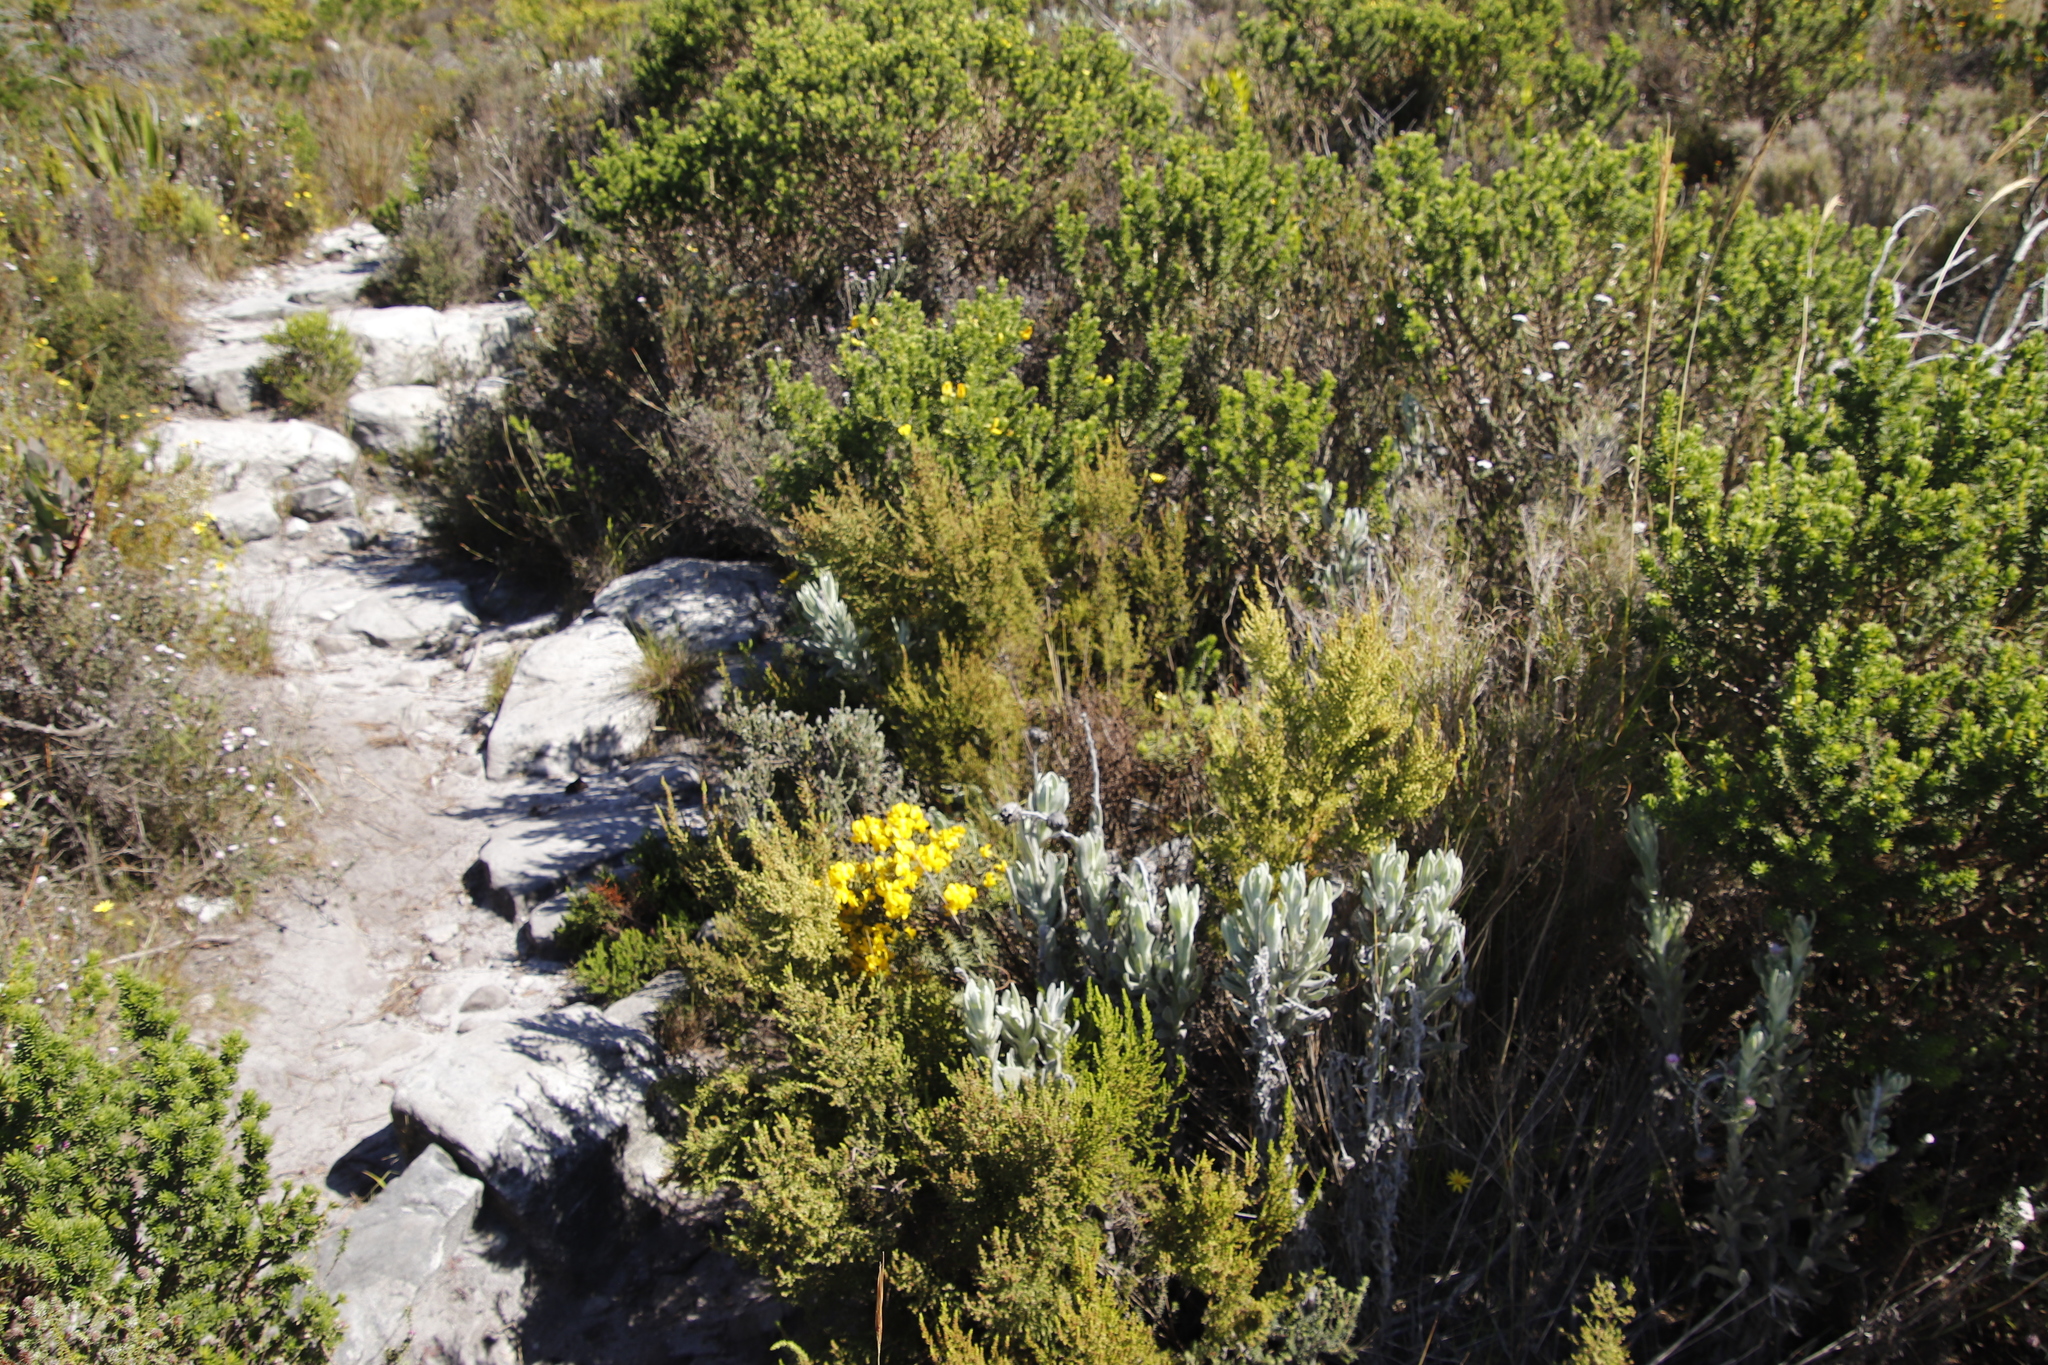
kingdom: Plantae
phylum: Tracheophyta
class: Magnoliopsida
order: Fabales
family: Fabaceae
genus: Cyclopia
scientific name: Cyclopia genistoides
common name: Honeybush tea
